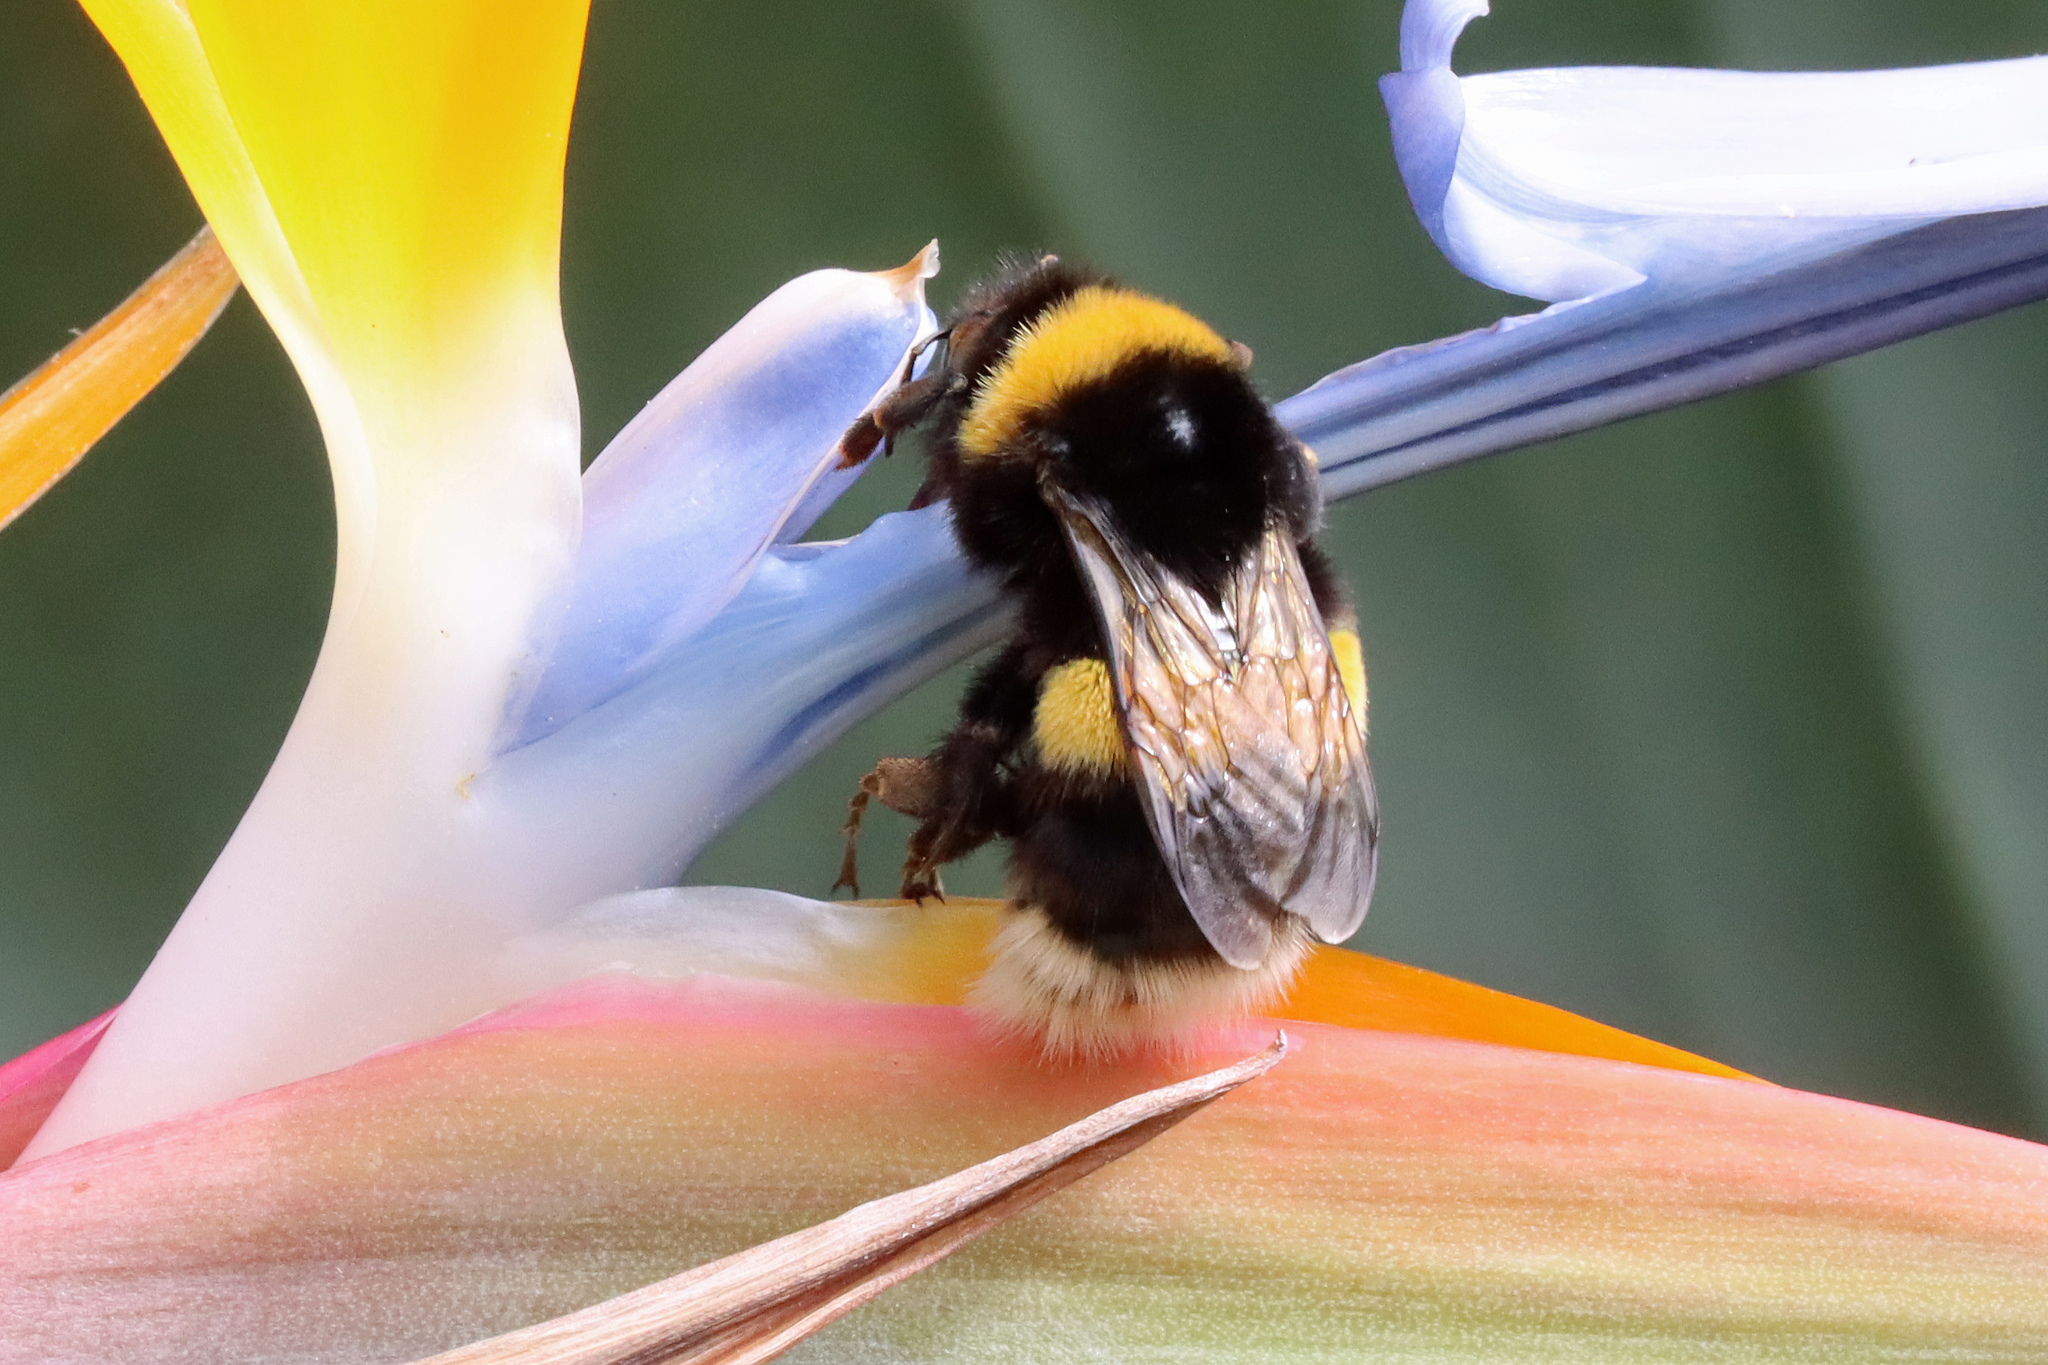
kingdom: Animalia
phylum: Arthropoda
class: Insecta
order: Hymenoptera
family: Apidae
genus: Bombus
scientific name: Bombus terrestris
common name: Buff-tailed bumblebee
